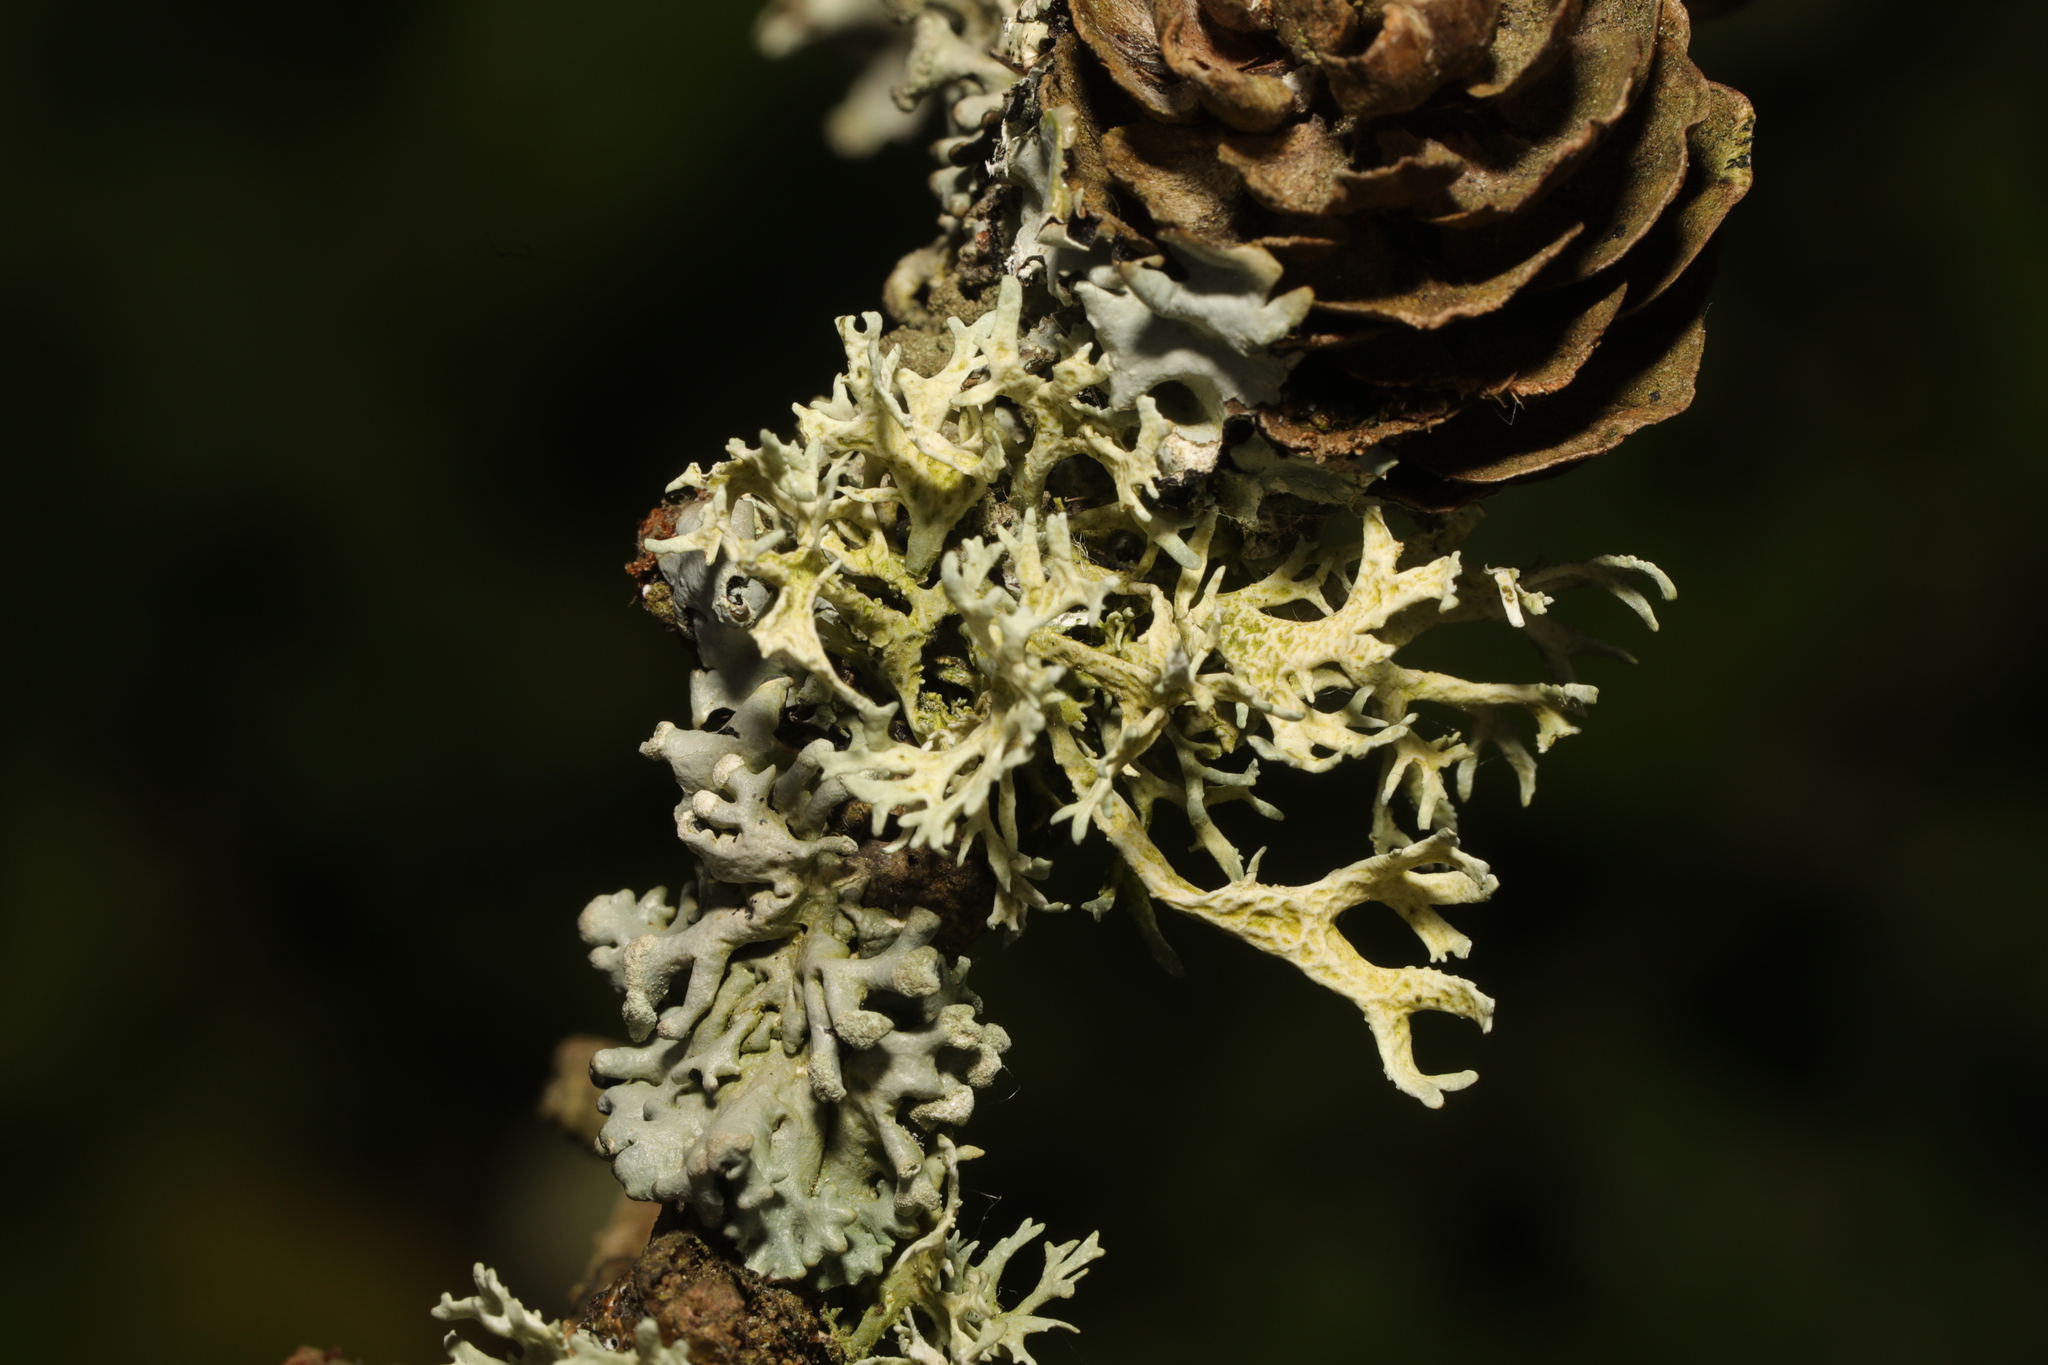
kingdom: Fungi
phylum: Ascomycota
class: Lecanoromycetes
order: Lecanorales
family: Parmeliaceae
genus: Evernia
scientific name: Evernia prunastri
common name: Oak moss
